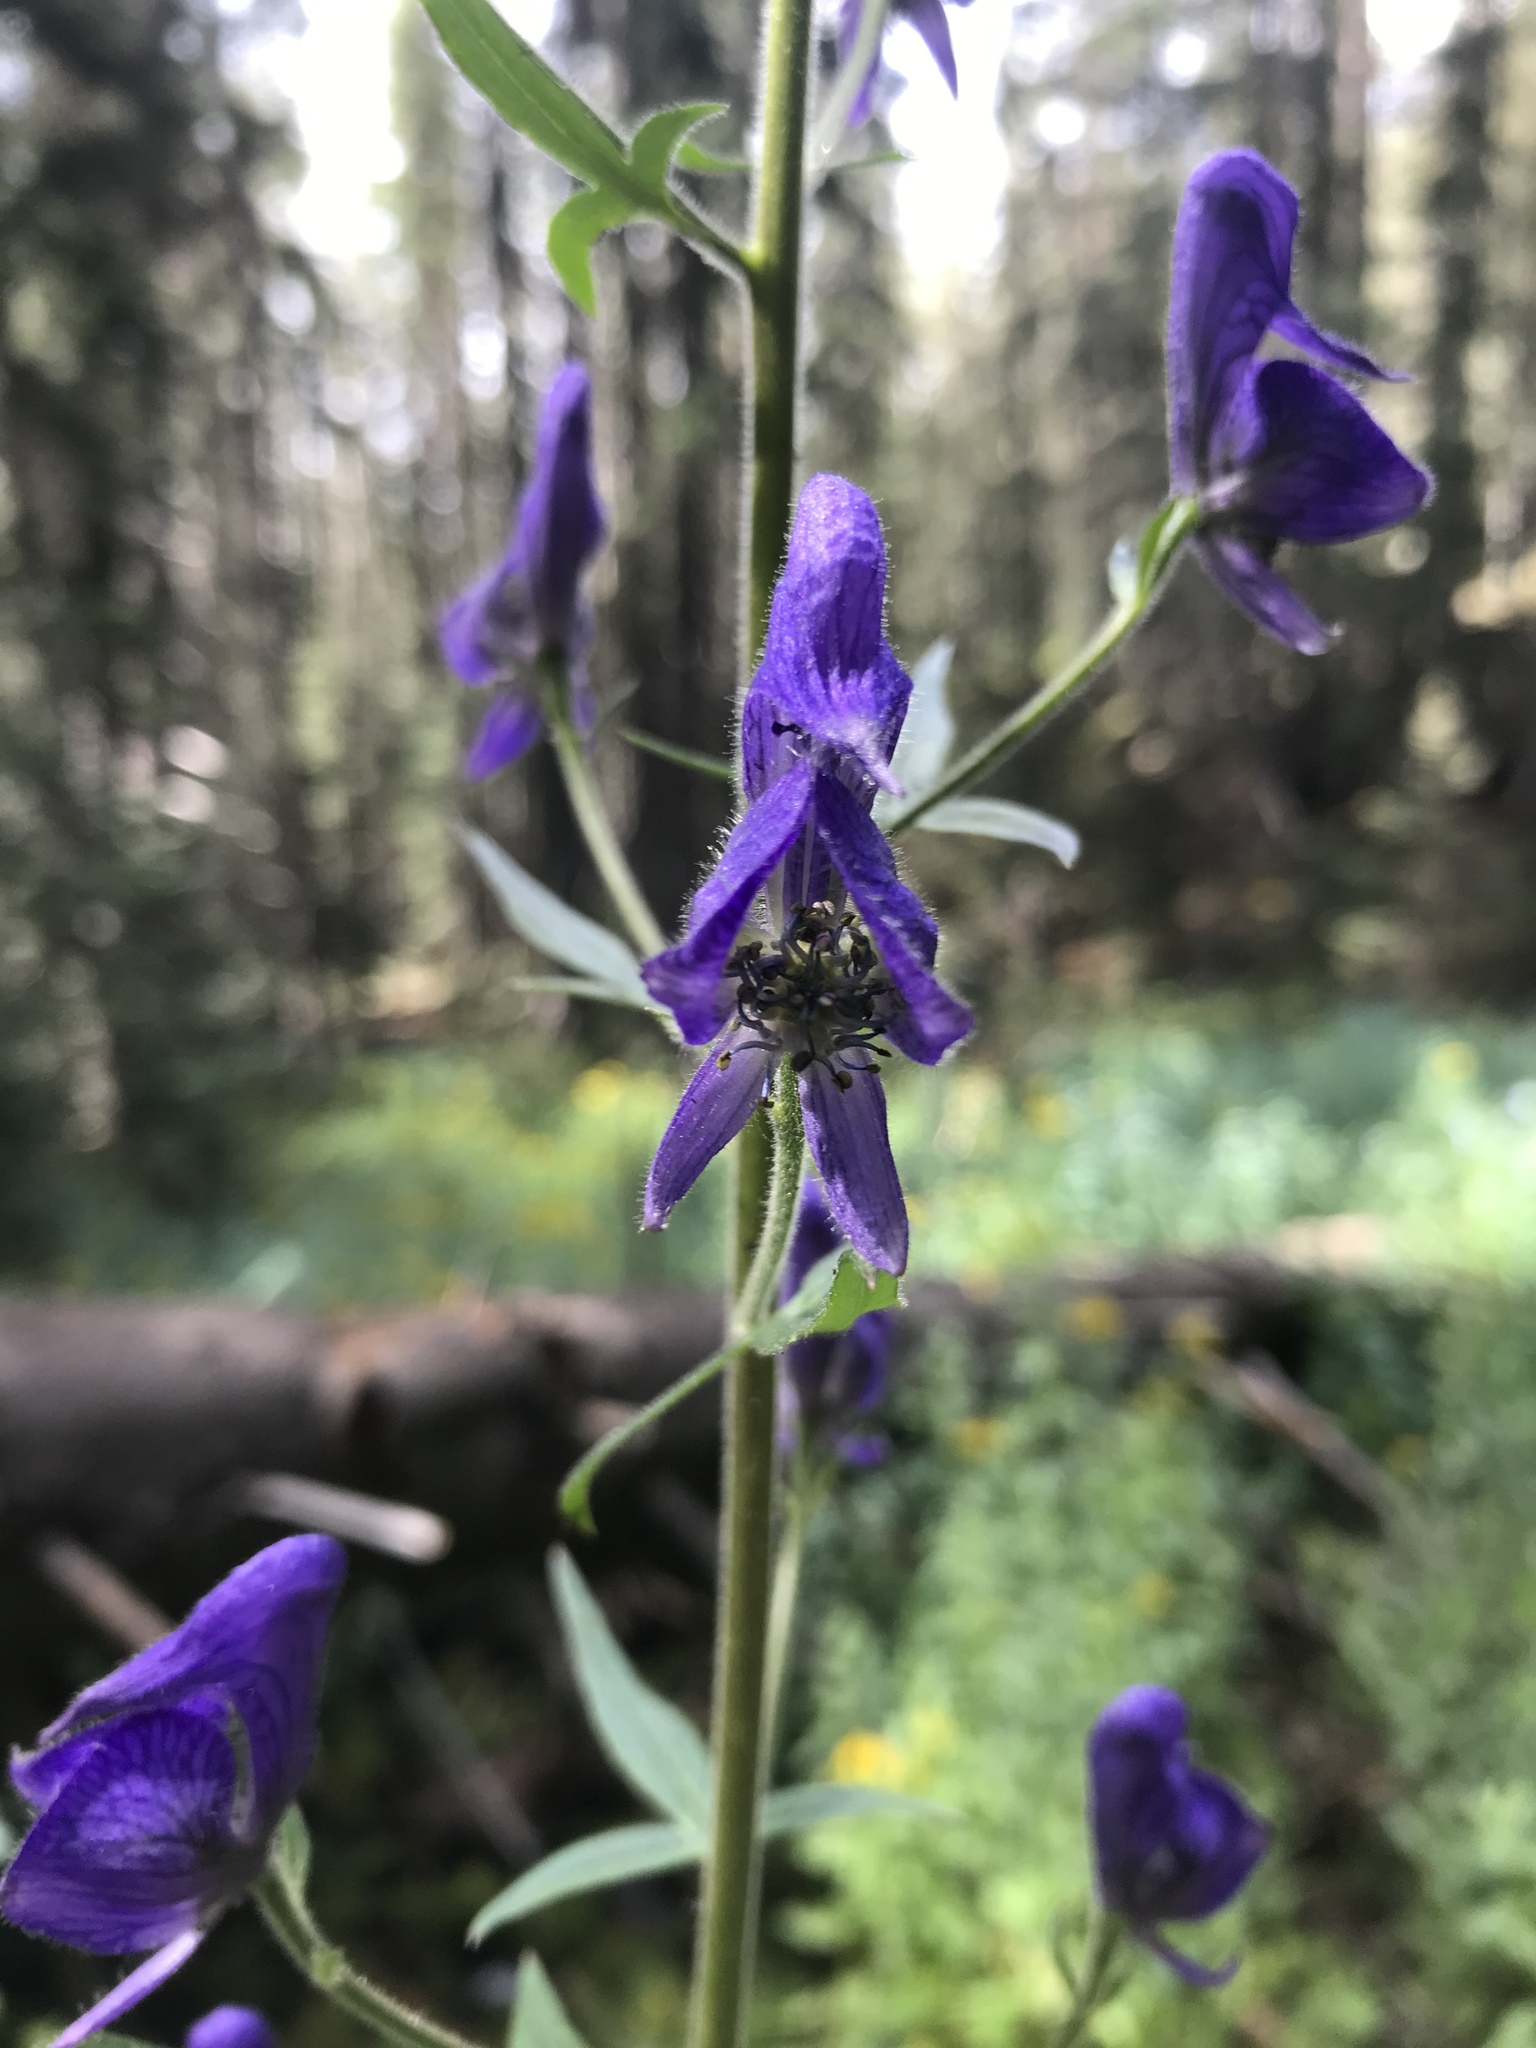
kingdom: Plantae
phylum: Tracheophyta
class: Magnoliopsida
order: Ranunculales
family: Ranunculaceae
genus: Aconitum
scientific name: Aconitum columbianum
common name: Columbia aconite
